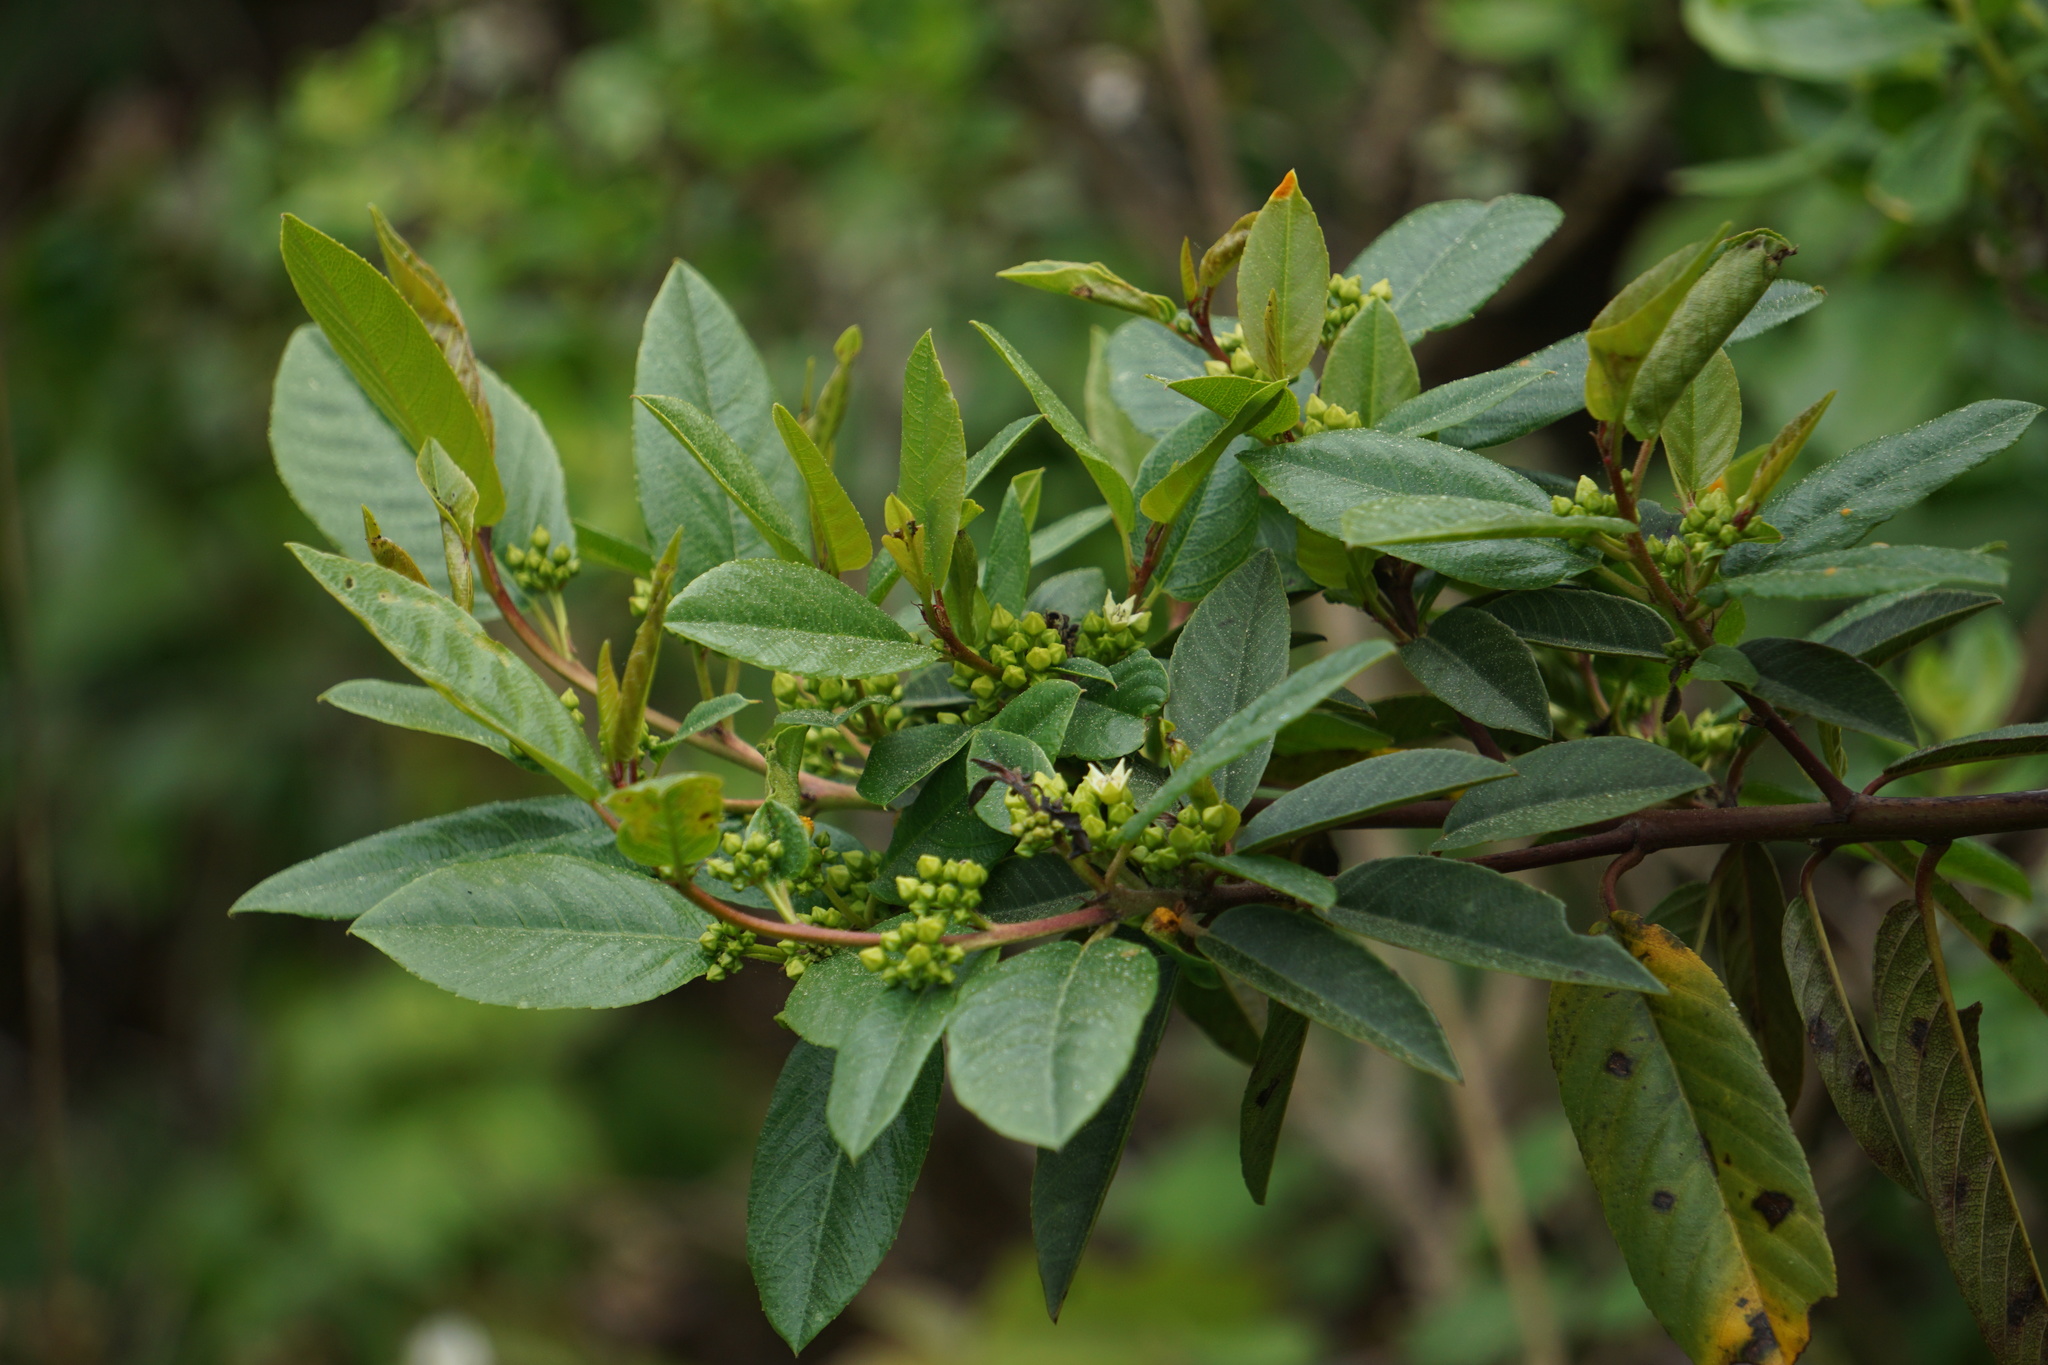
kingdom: Plantae
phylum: Tracheophyta
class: Magnoliopsida
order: Rosales
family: Rhamnaceae
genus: Frangula
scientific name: Frangula californica
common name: California buckthorn
